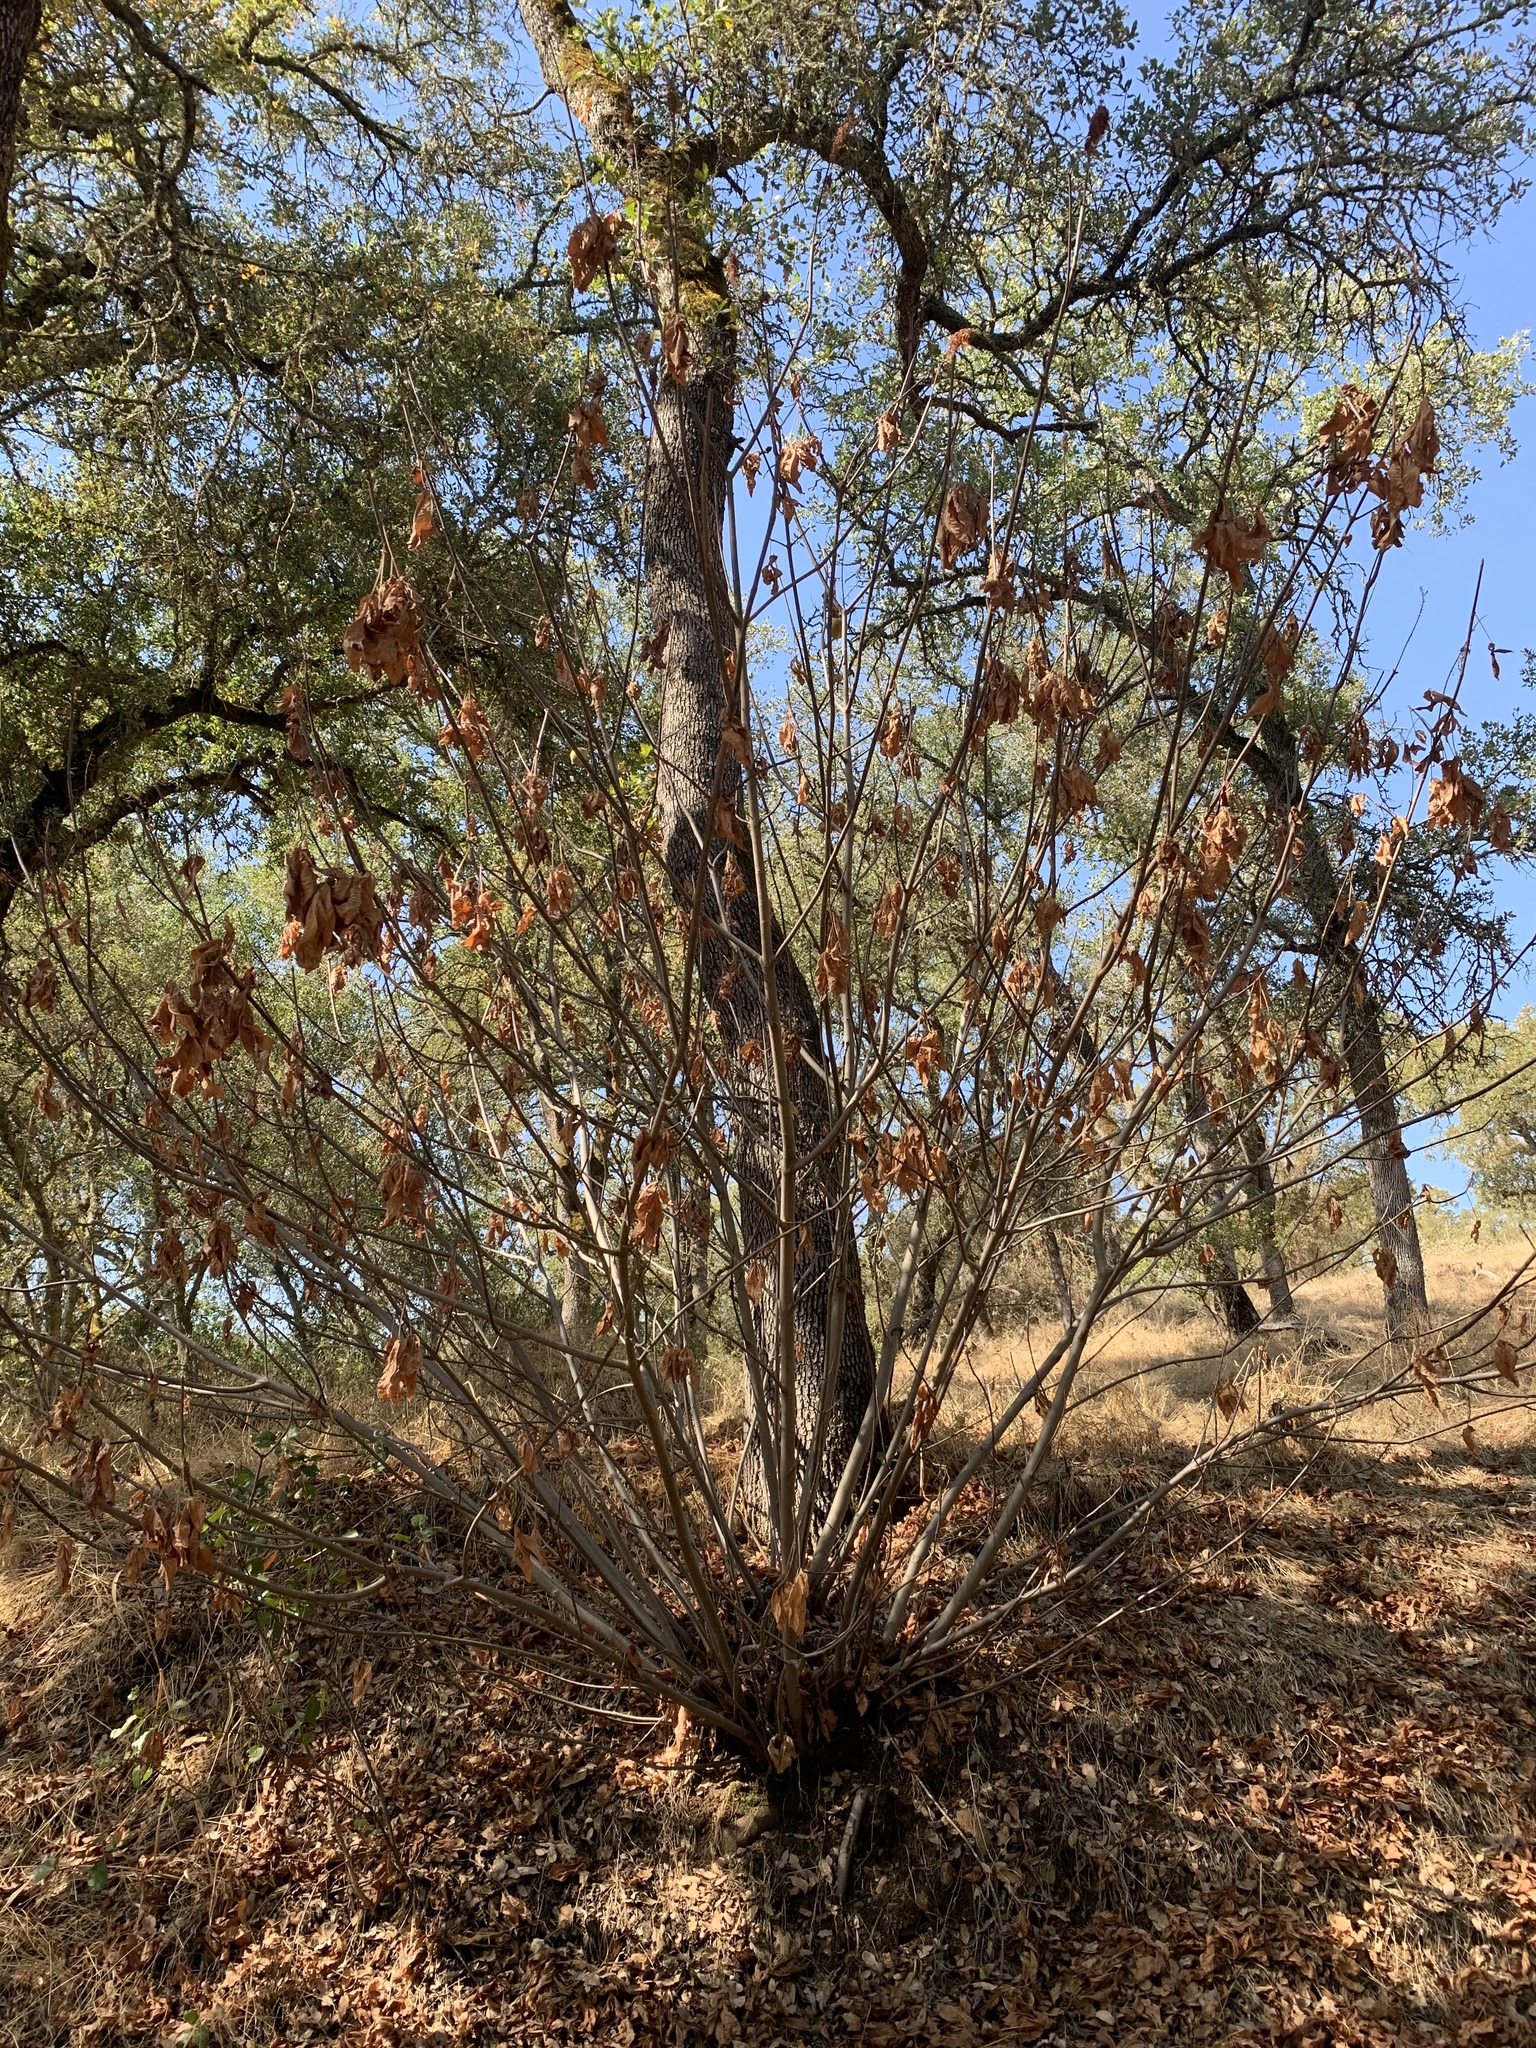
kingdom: Plantae
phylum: Tracheophyta
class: Magnoliopsida
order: Sapindales
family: Sapindaceae
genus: Aesculus
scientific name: Aesculus californica
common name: California buckeye
